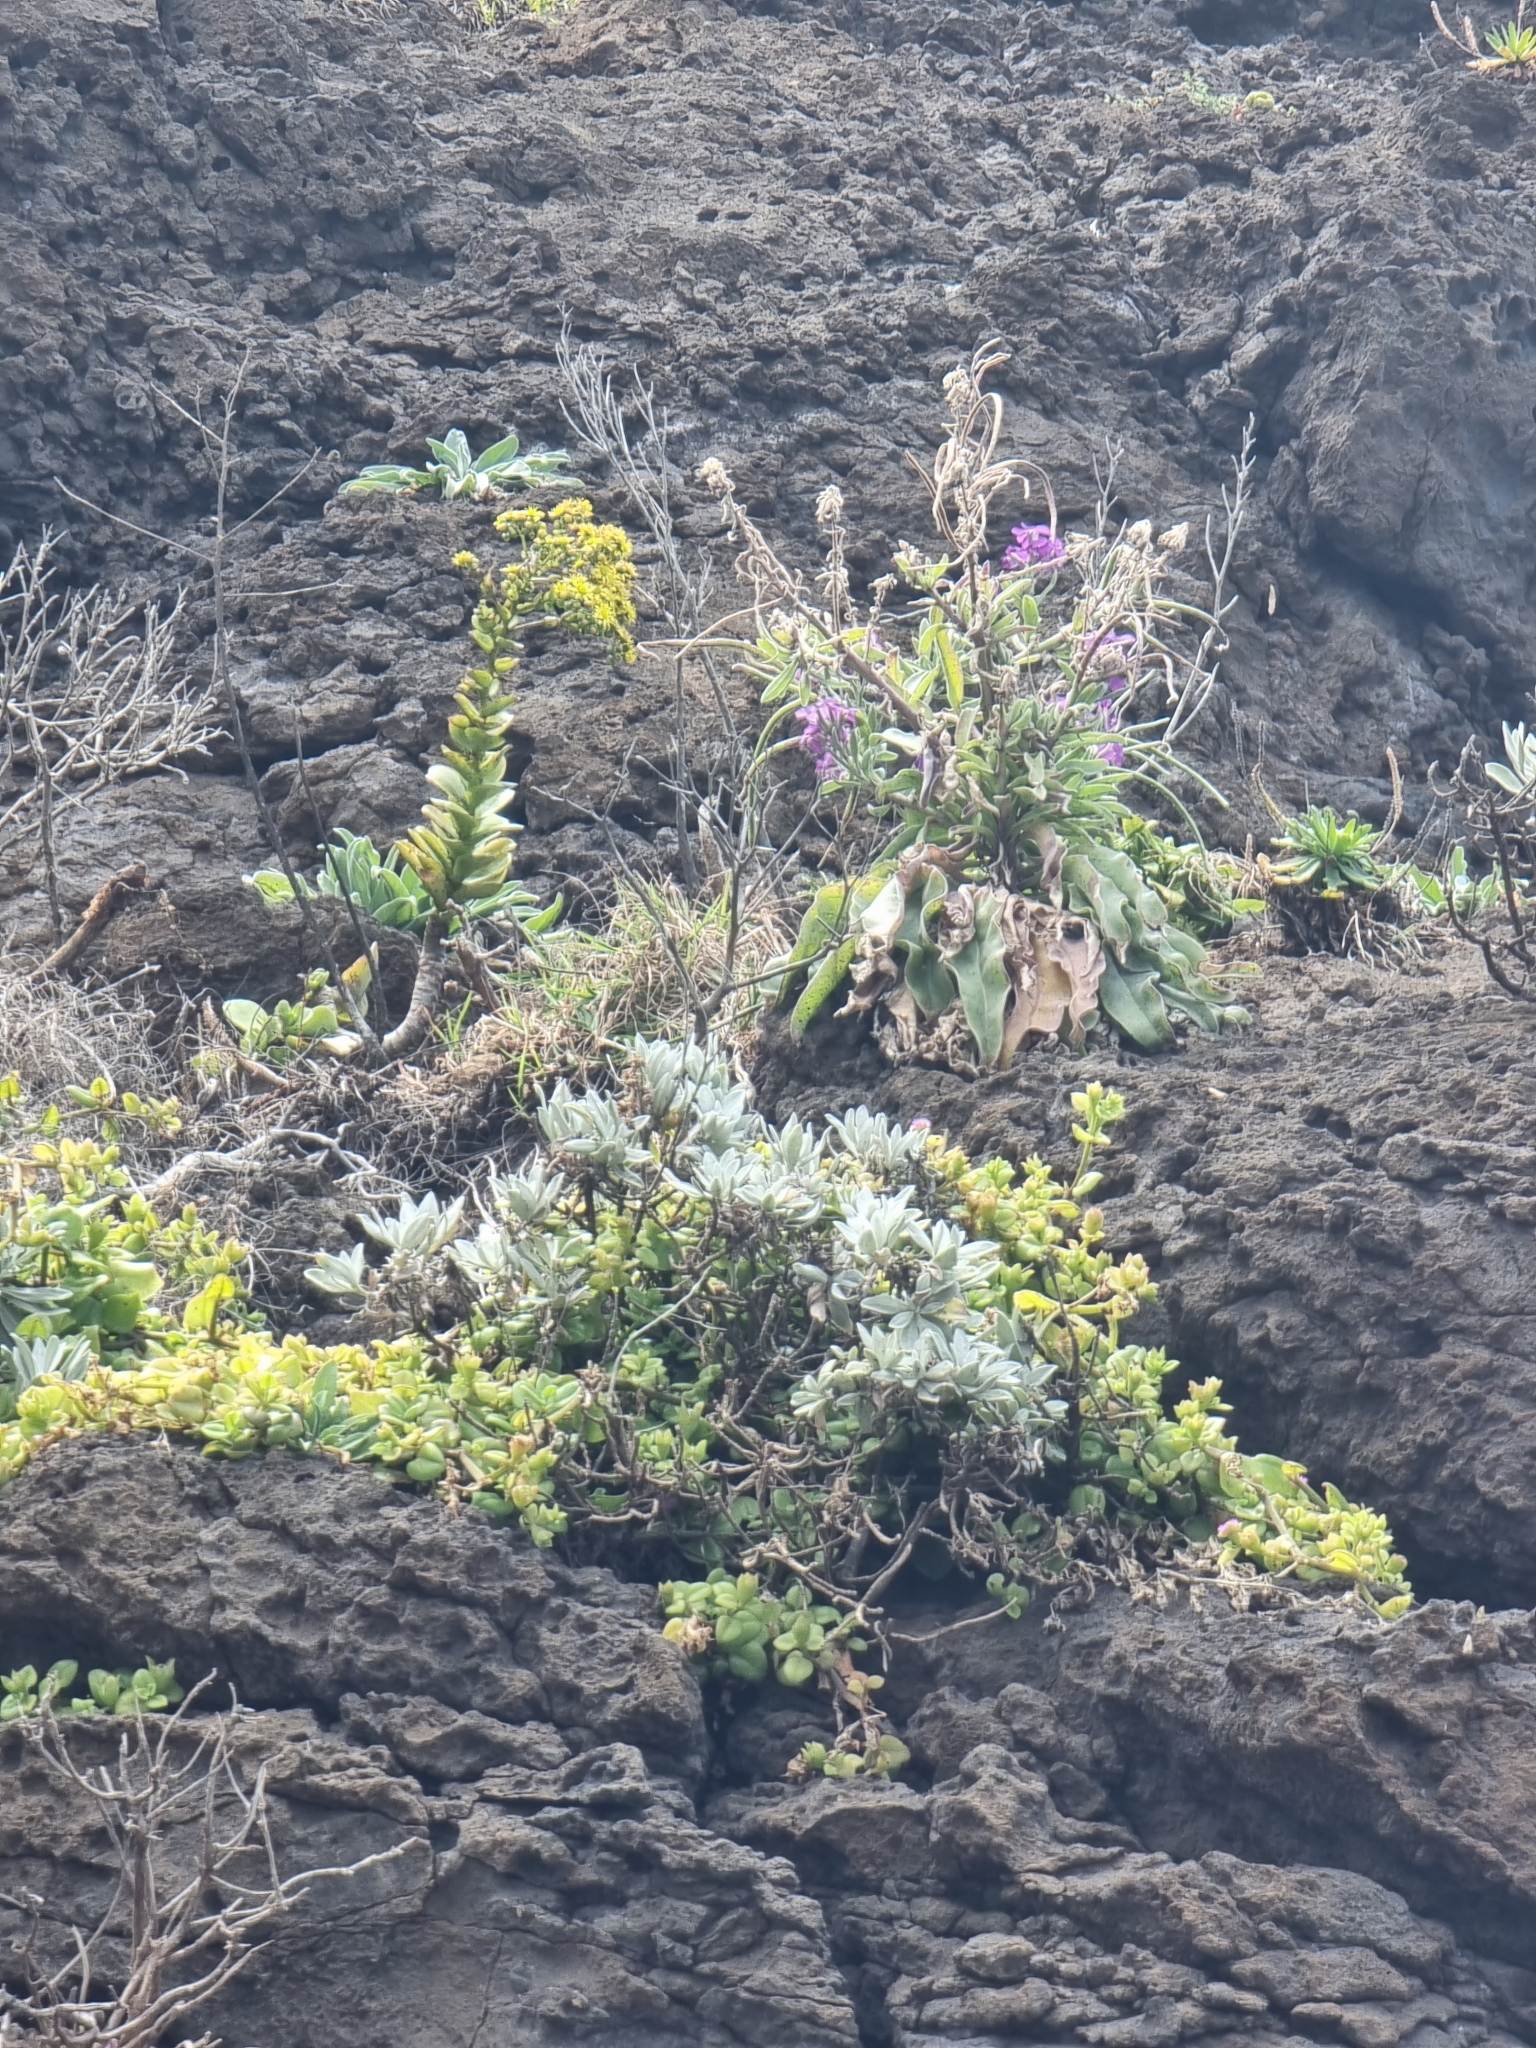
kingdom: Plantae
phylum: Tracheophyta
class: Magnoliopsida
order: Brassicales
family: Brassicaceae
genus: Matthiola
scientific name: Matthiola maderensis
